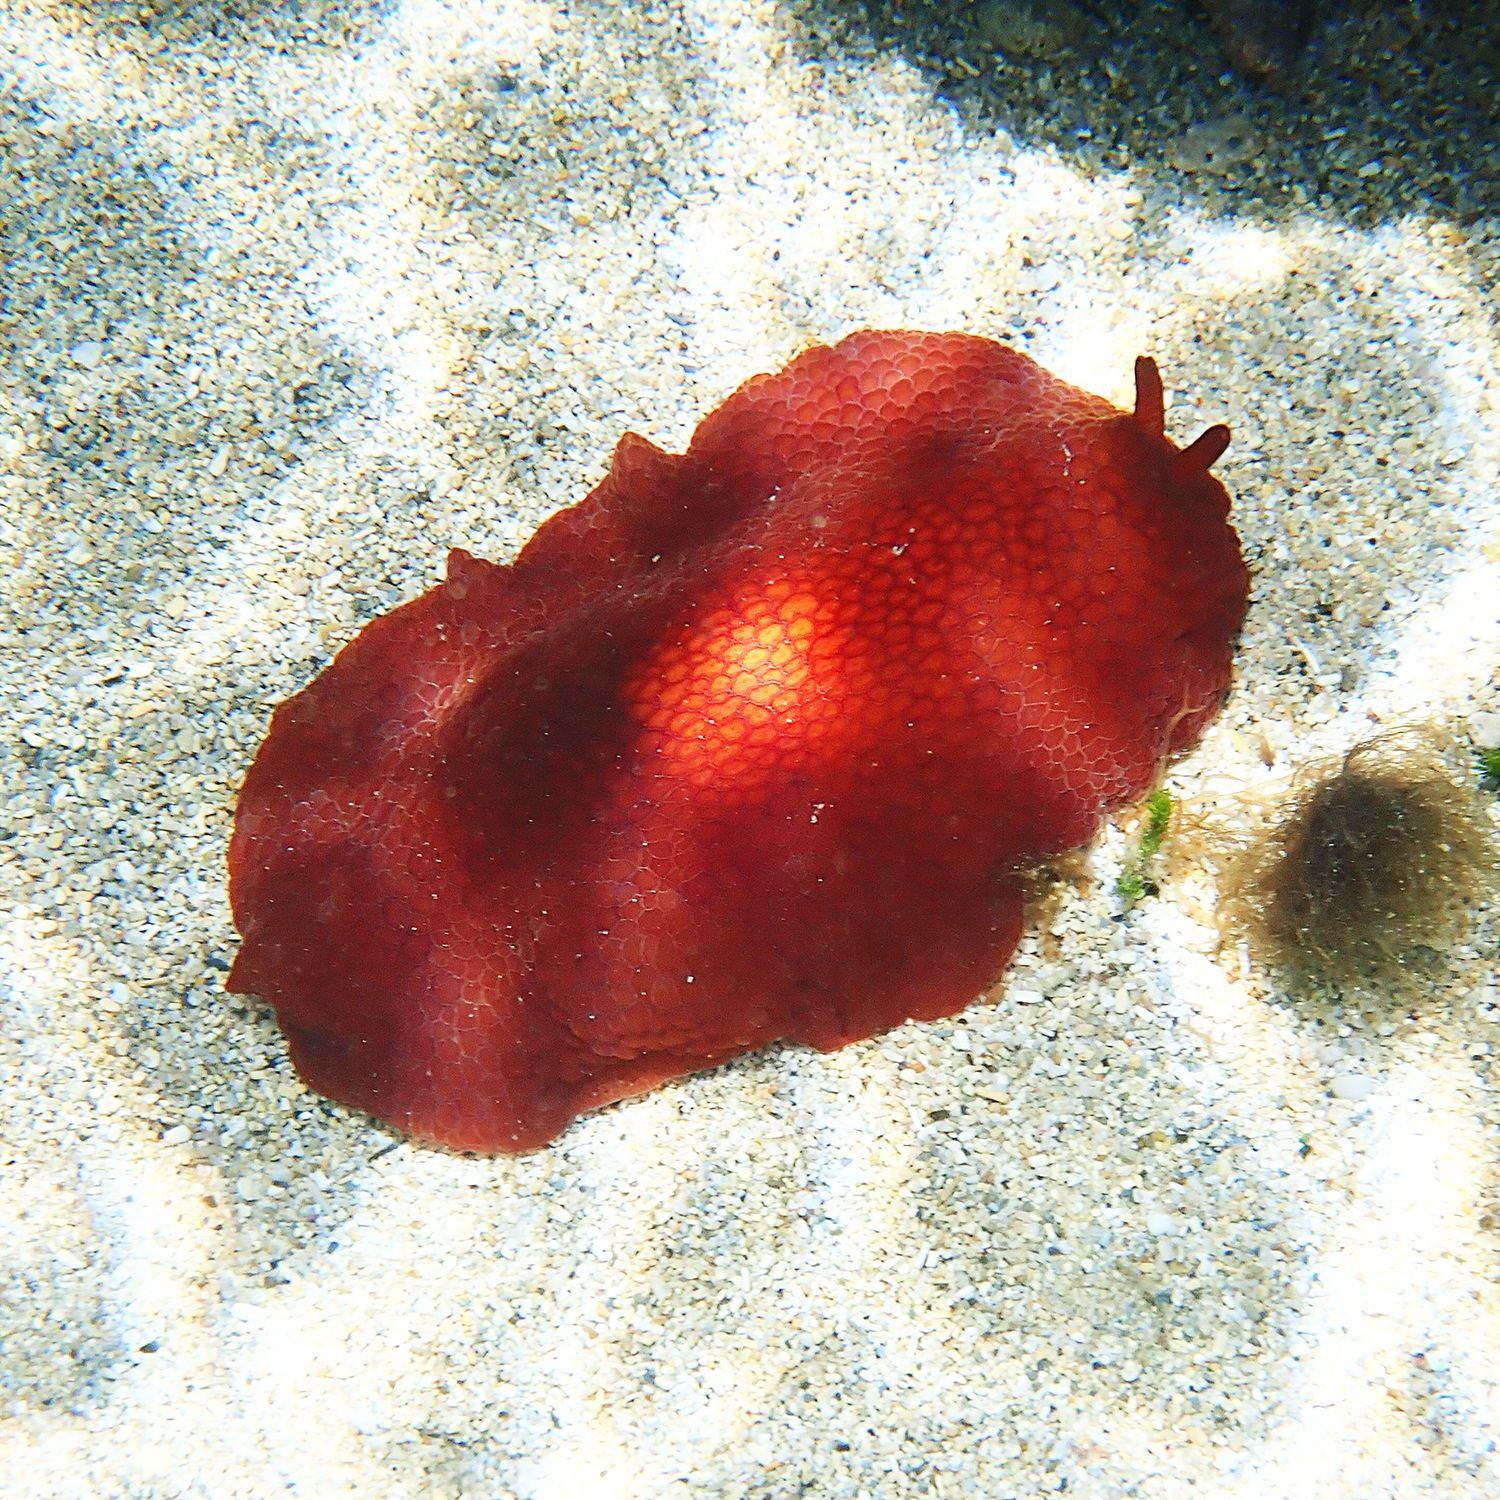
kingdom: Animalia
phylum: Mollusca
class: Gastropoda
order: Pleurobranchida
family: Pleurobranchidae
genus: Pleurobranchus
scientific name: Pleurobranchus peronii
